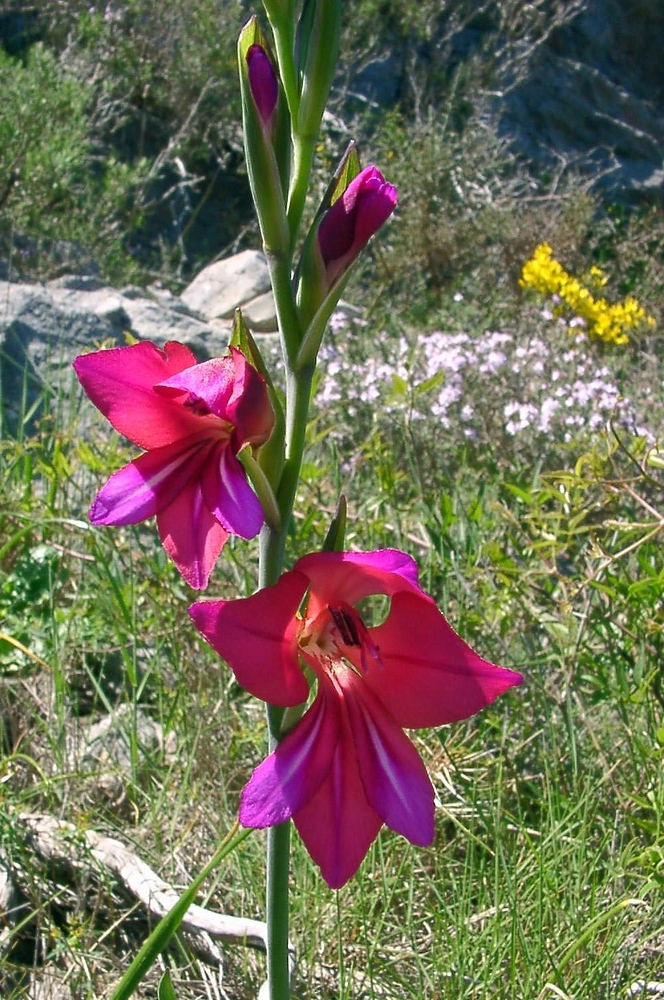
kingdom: Plantae
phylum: Tracheophyta
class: Liliopsida
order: Asparagales
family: Iridaceae
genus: Gladiolus
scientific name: Gladiolus italicus
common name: Field gladiolus
